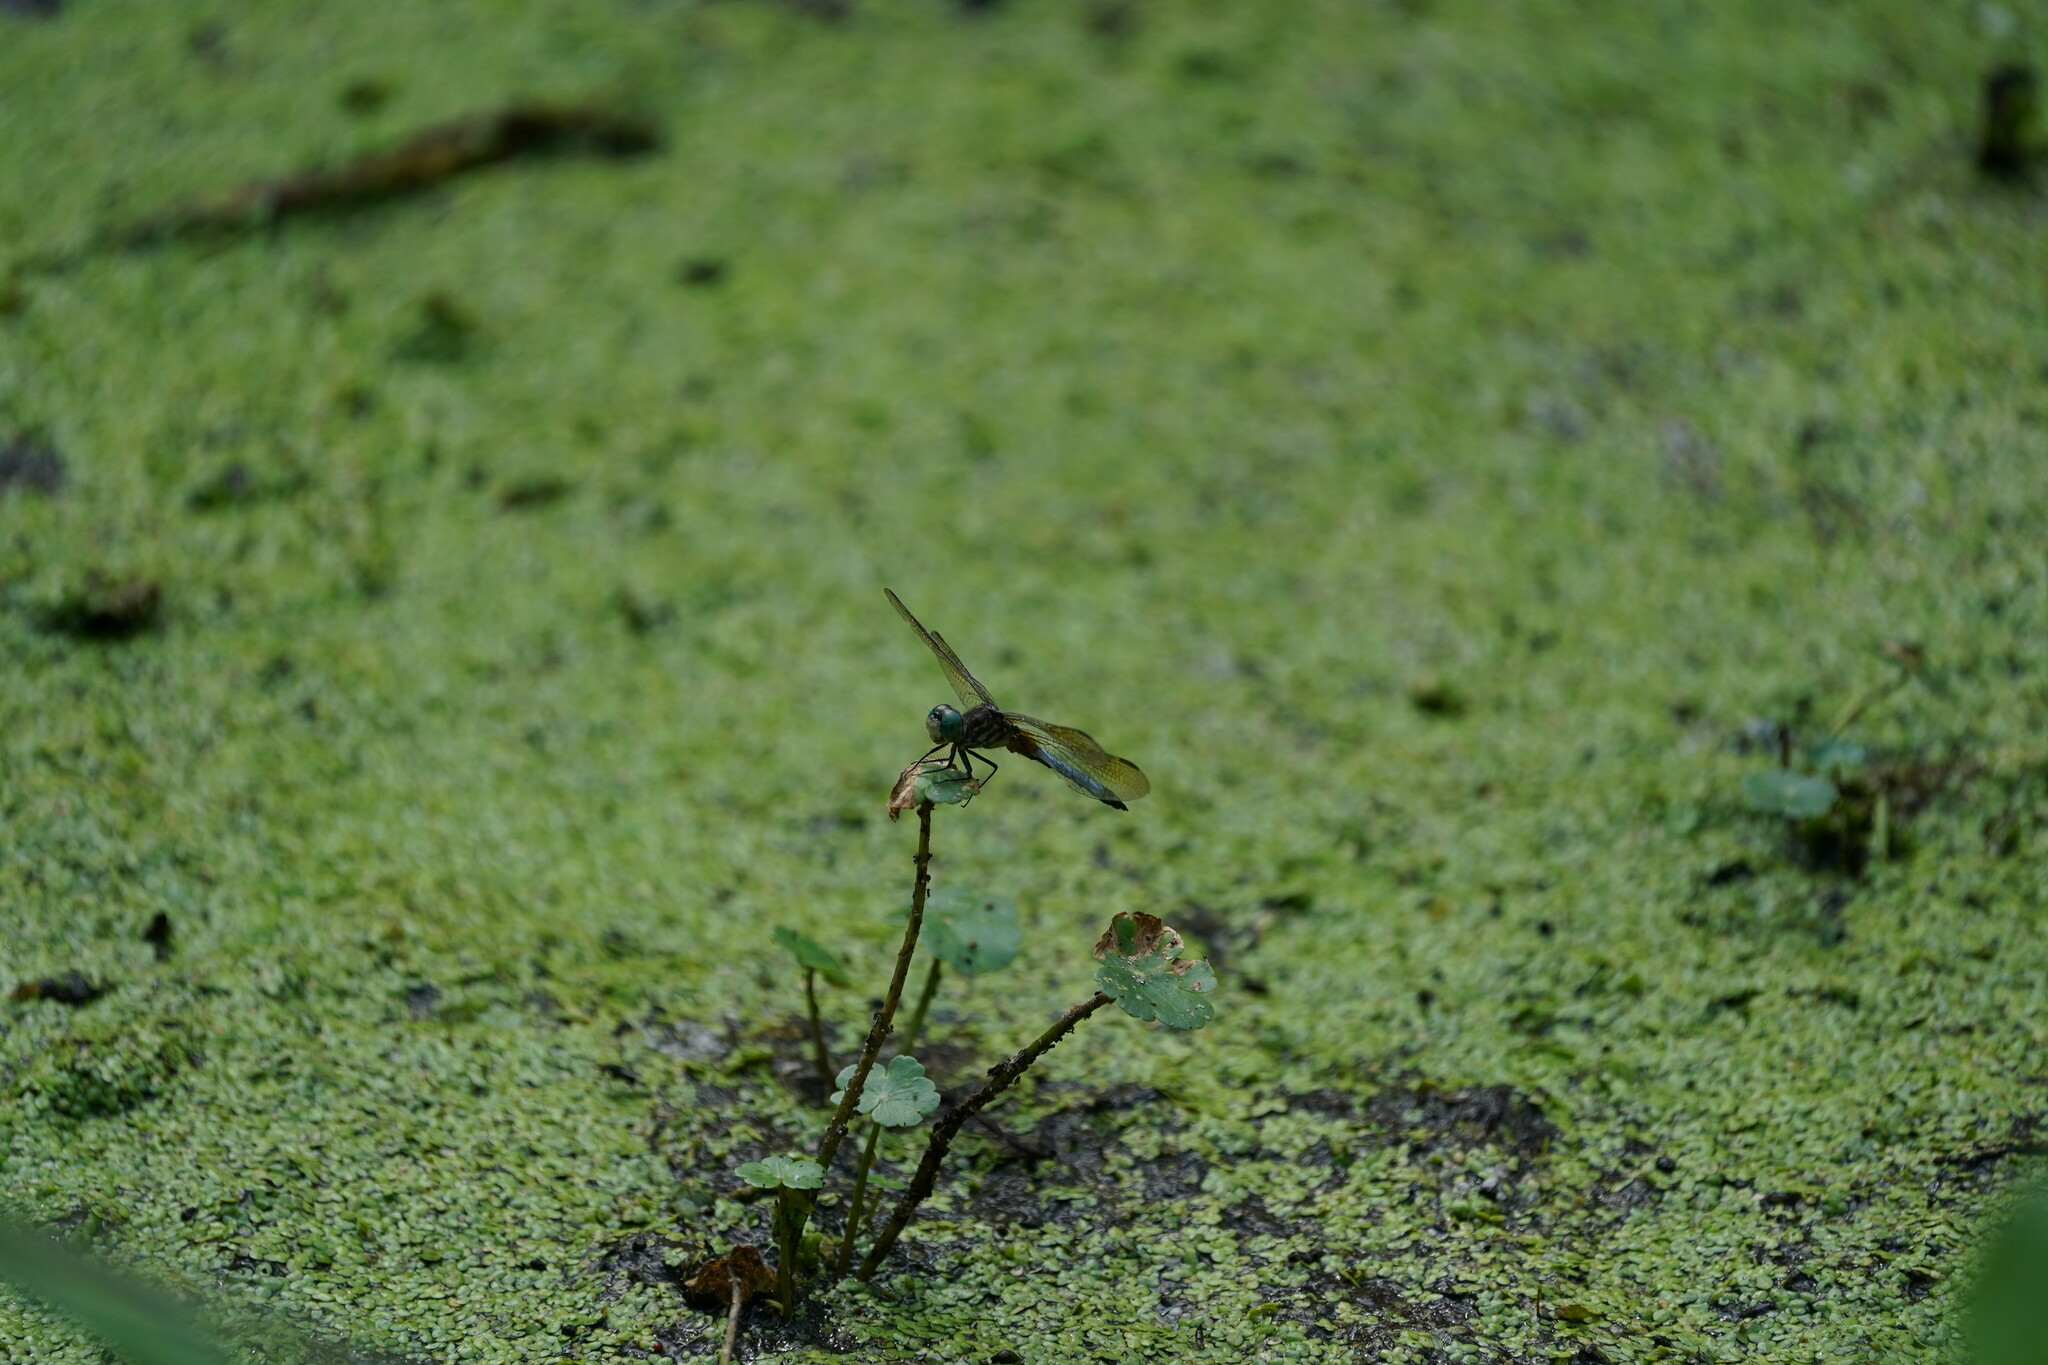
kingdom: Animalia
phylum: Arthropoda
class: Insecta
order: Odonata
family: Libellulidae
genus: Pachydiplax
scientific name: Pachydiplax longipennis
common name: Blue dasher
